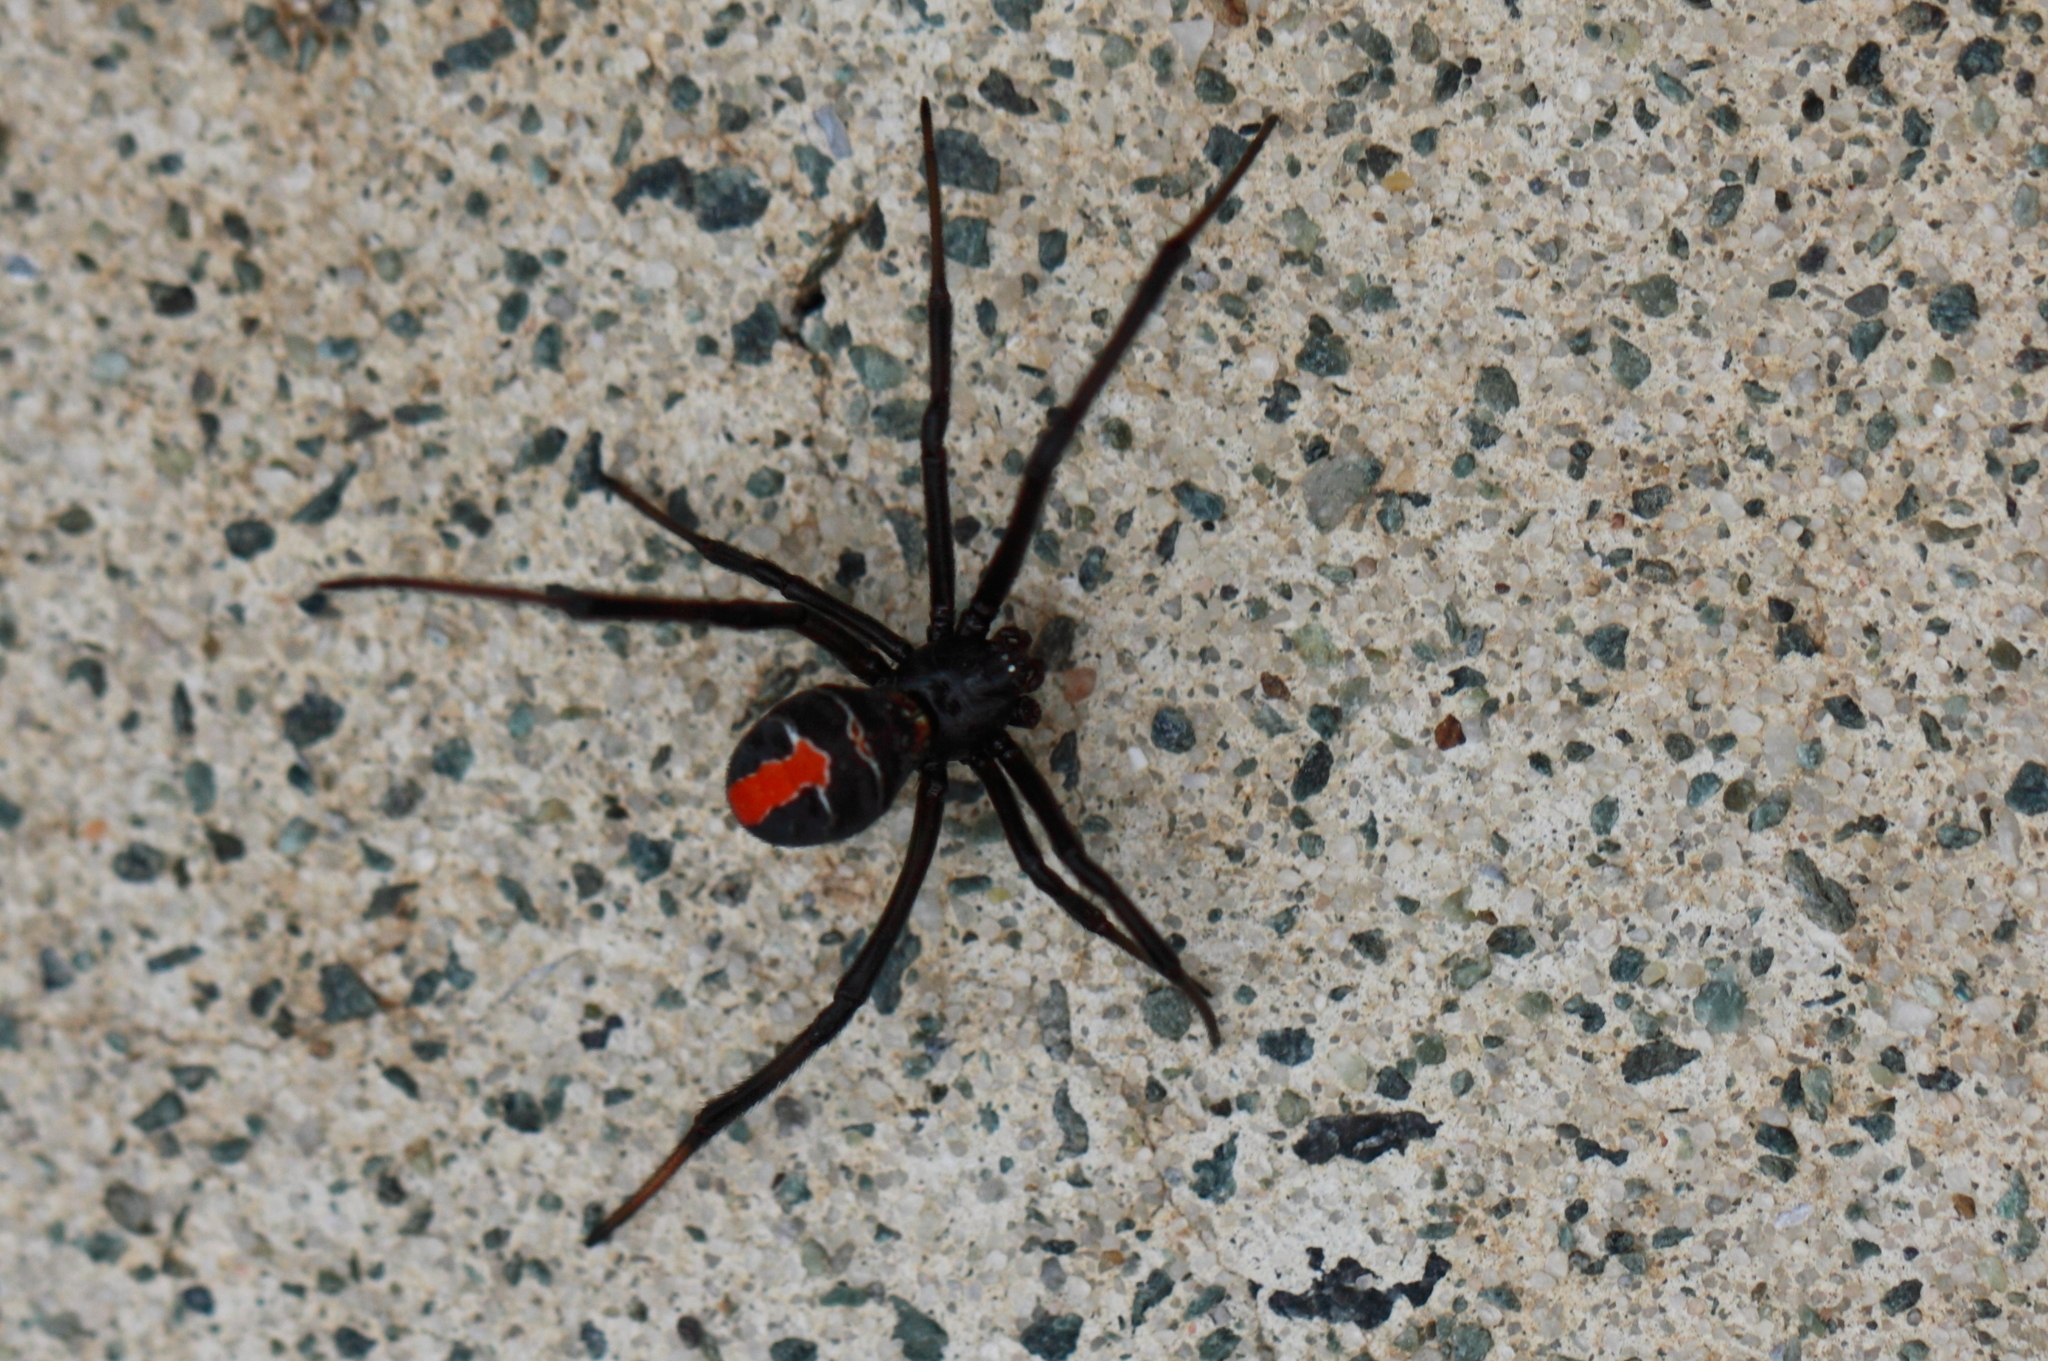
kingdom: Animalia
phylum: Arthropoda
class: Arachnida
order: Araneae
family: Theridiidae
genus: Latrodectus
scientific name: Latrodectus hasselti
